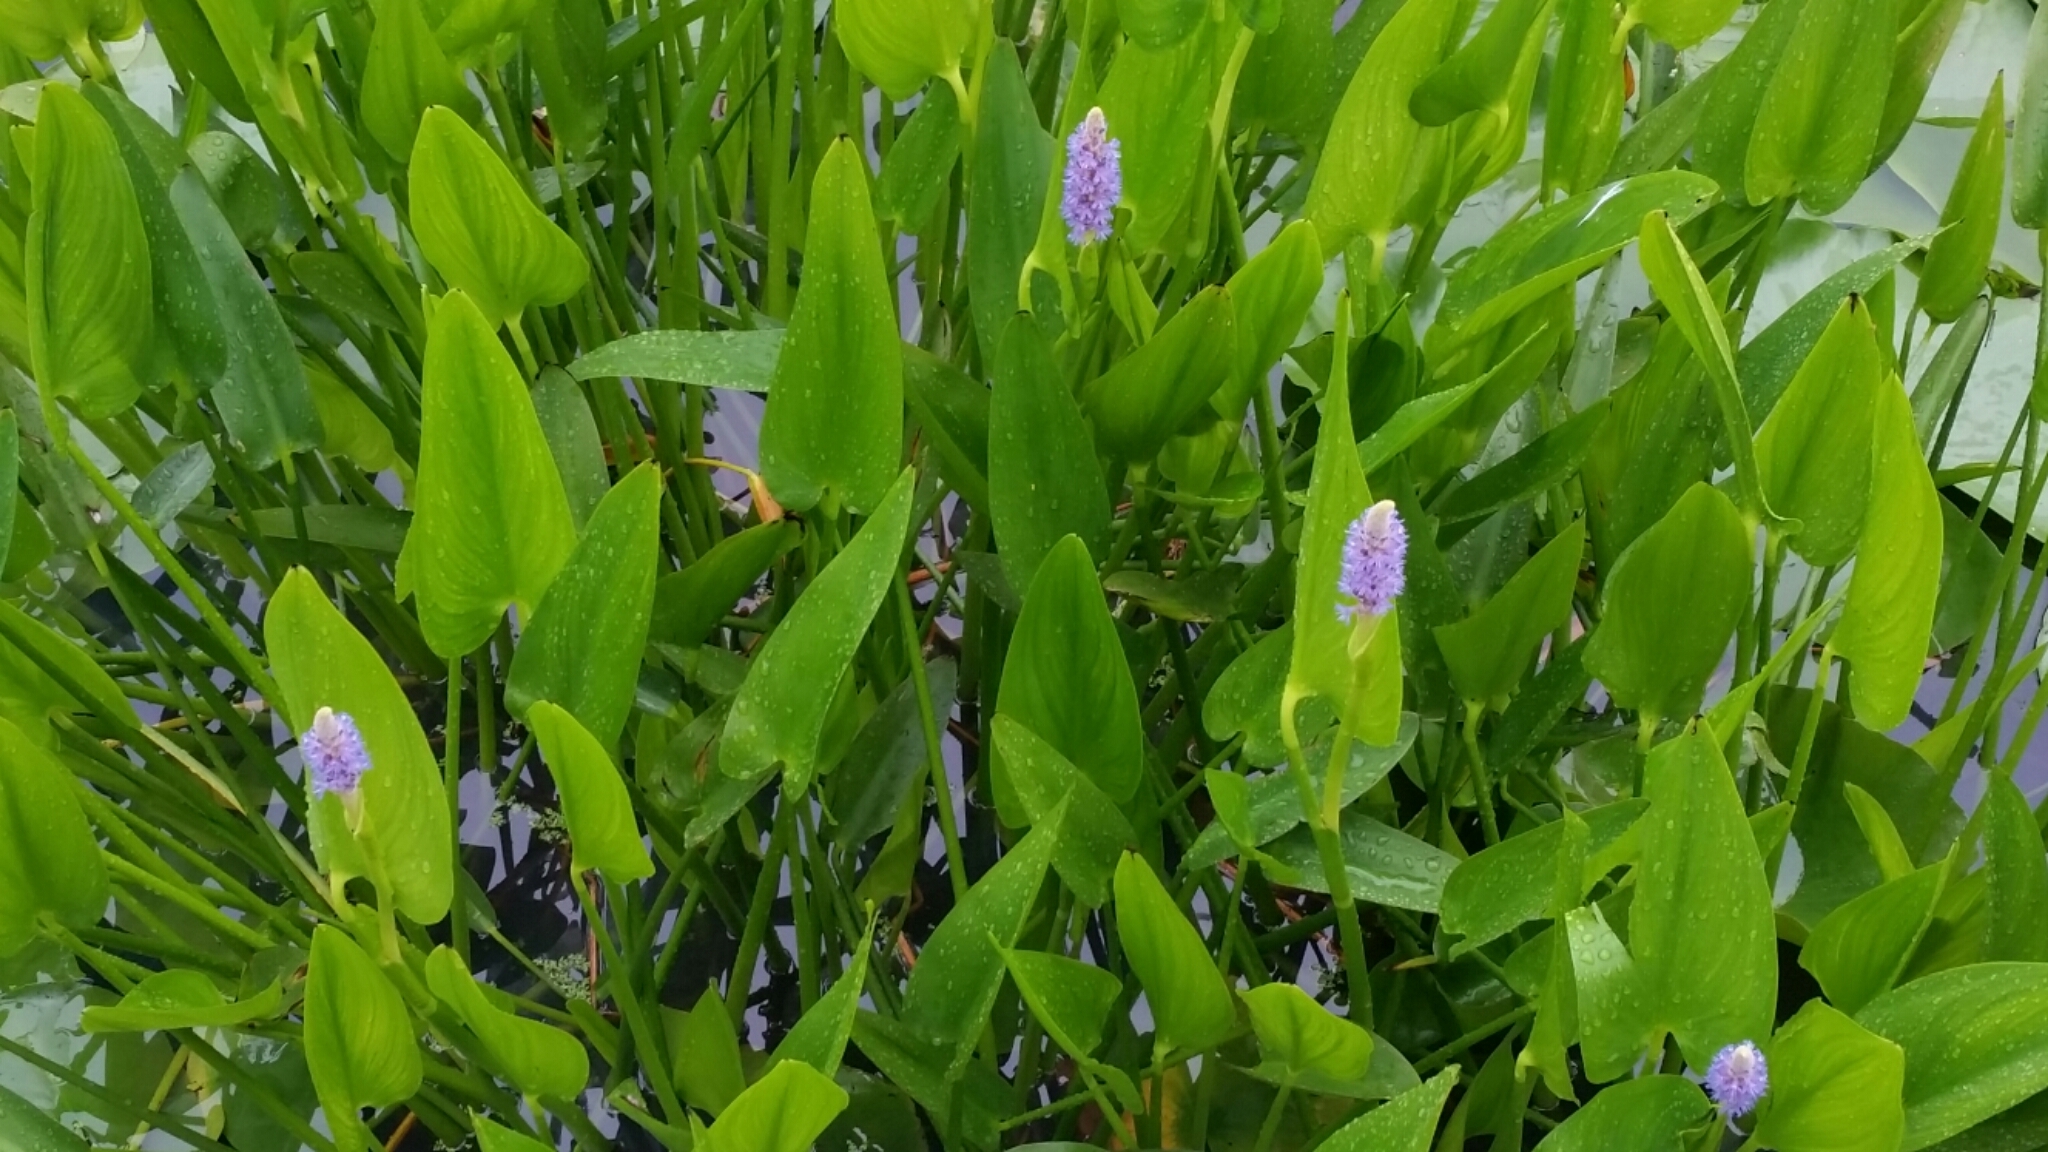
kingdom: Plantae
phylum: Tracheophyta
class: Liliopsida
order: Commelinales
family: Pontederiaceae
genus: Pontederia
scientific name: Pontederia cordata
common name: Pickerelweed
